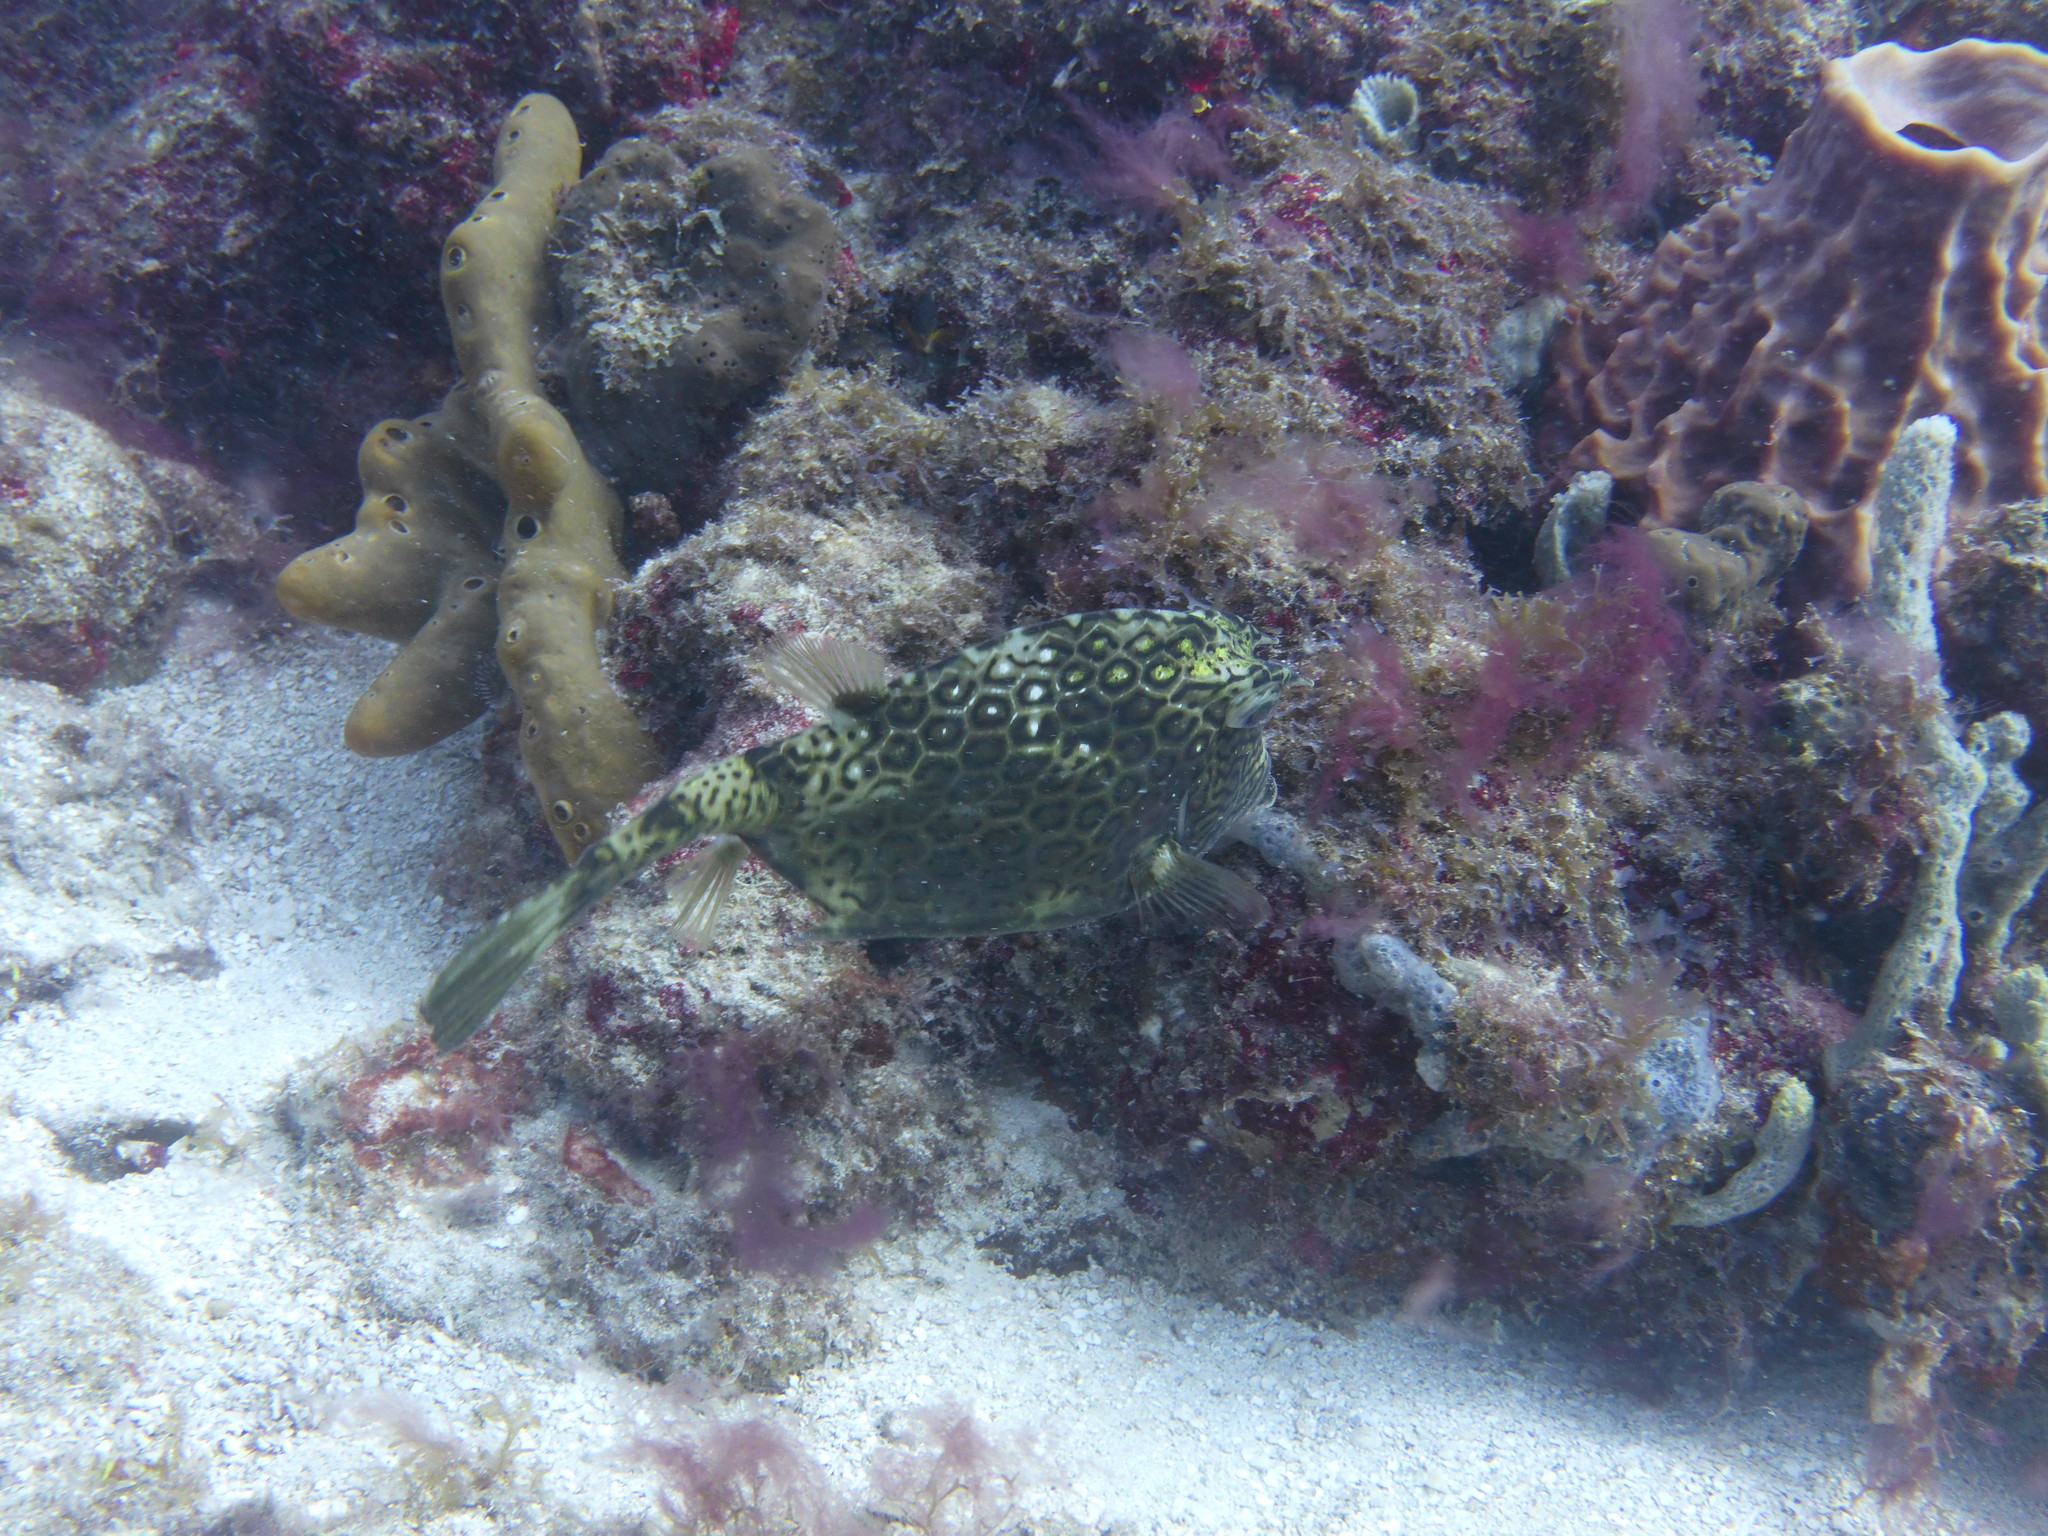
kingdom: Animalia
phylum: Chordata
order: Tetraodontiformes
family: Ostraciidae
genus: Acanthostracion
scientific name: Acanthostracion polygonius
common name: Honeycomb cowfish
